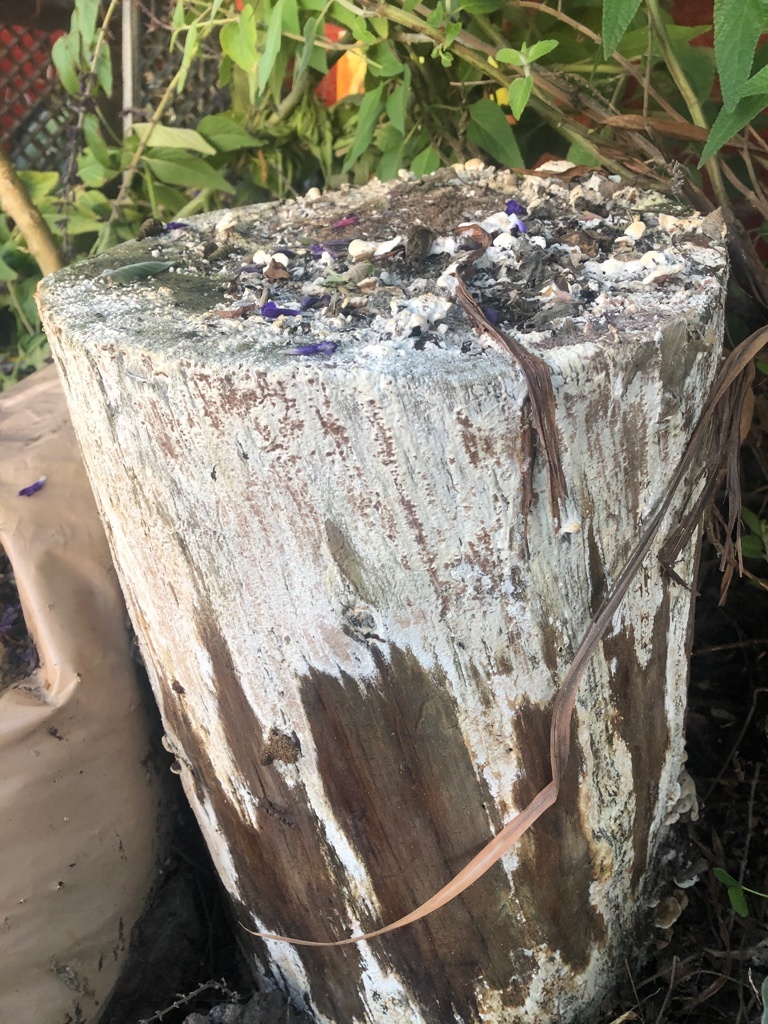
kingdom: Fungi
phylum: Basidiomycota
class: Agaricomycetes
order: Polyporales
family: Irpicaceae
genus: Vitreoporus
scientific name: Vitreoporus dichrous
